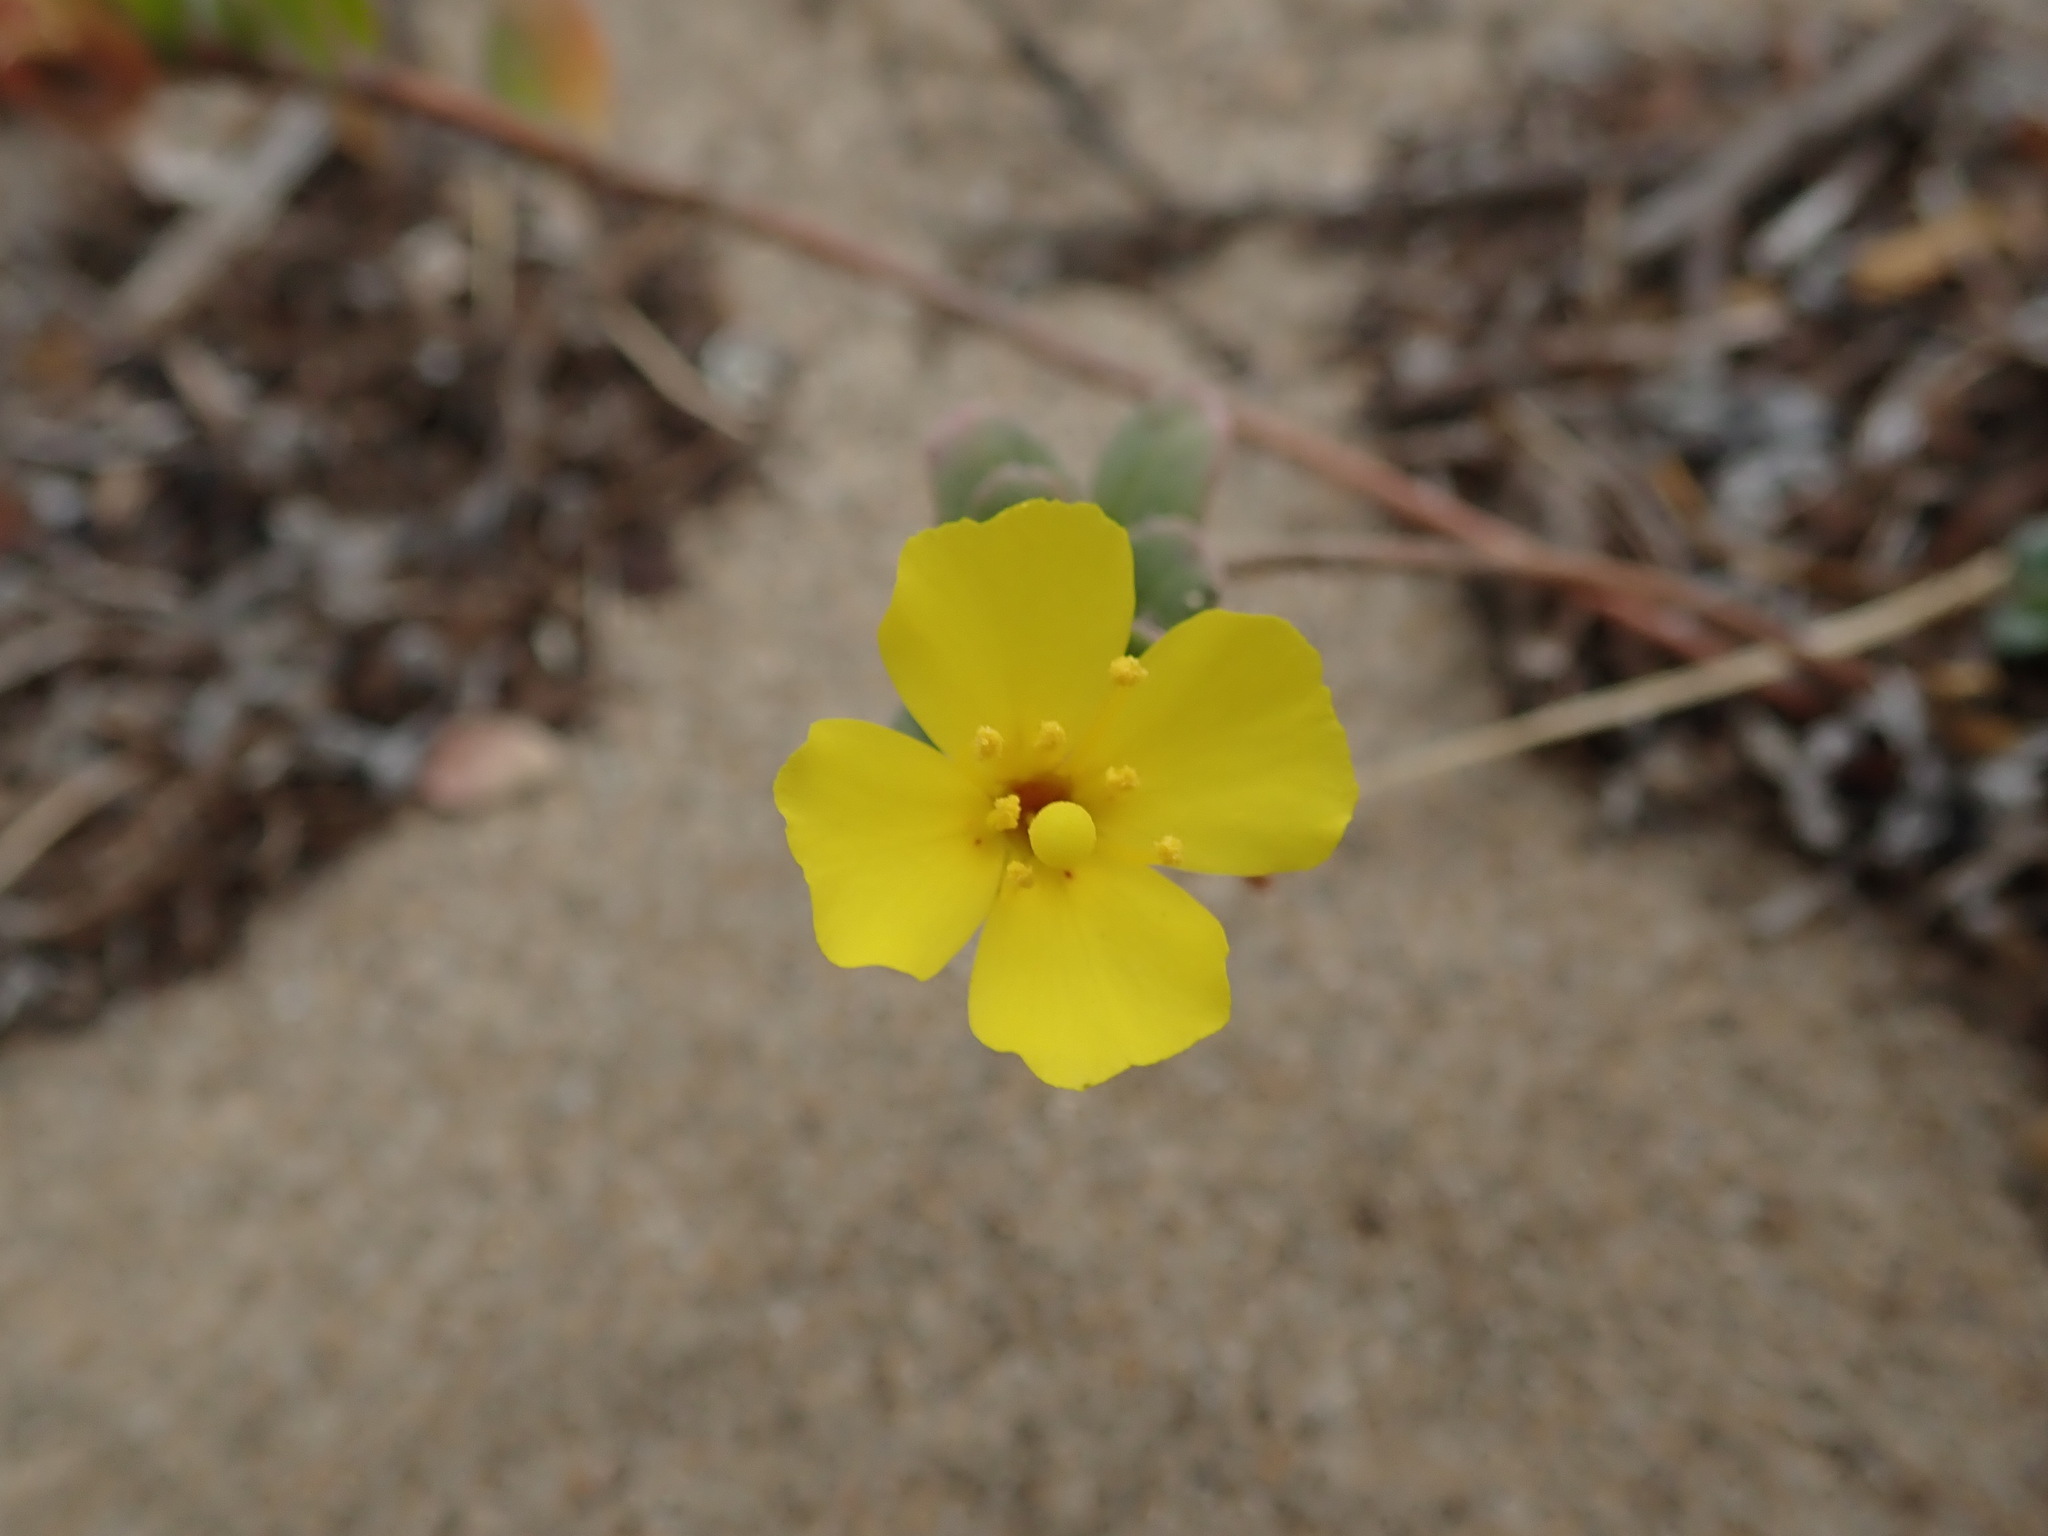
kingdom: Plantae
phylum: Tracheophyta
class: Magnoliopsida
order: Myrtales
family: Onagraceae
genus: Camissoniopsis
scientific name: Camissoniopsis cheiranthifolia
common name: Beach suncup
